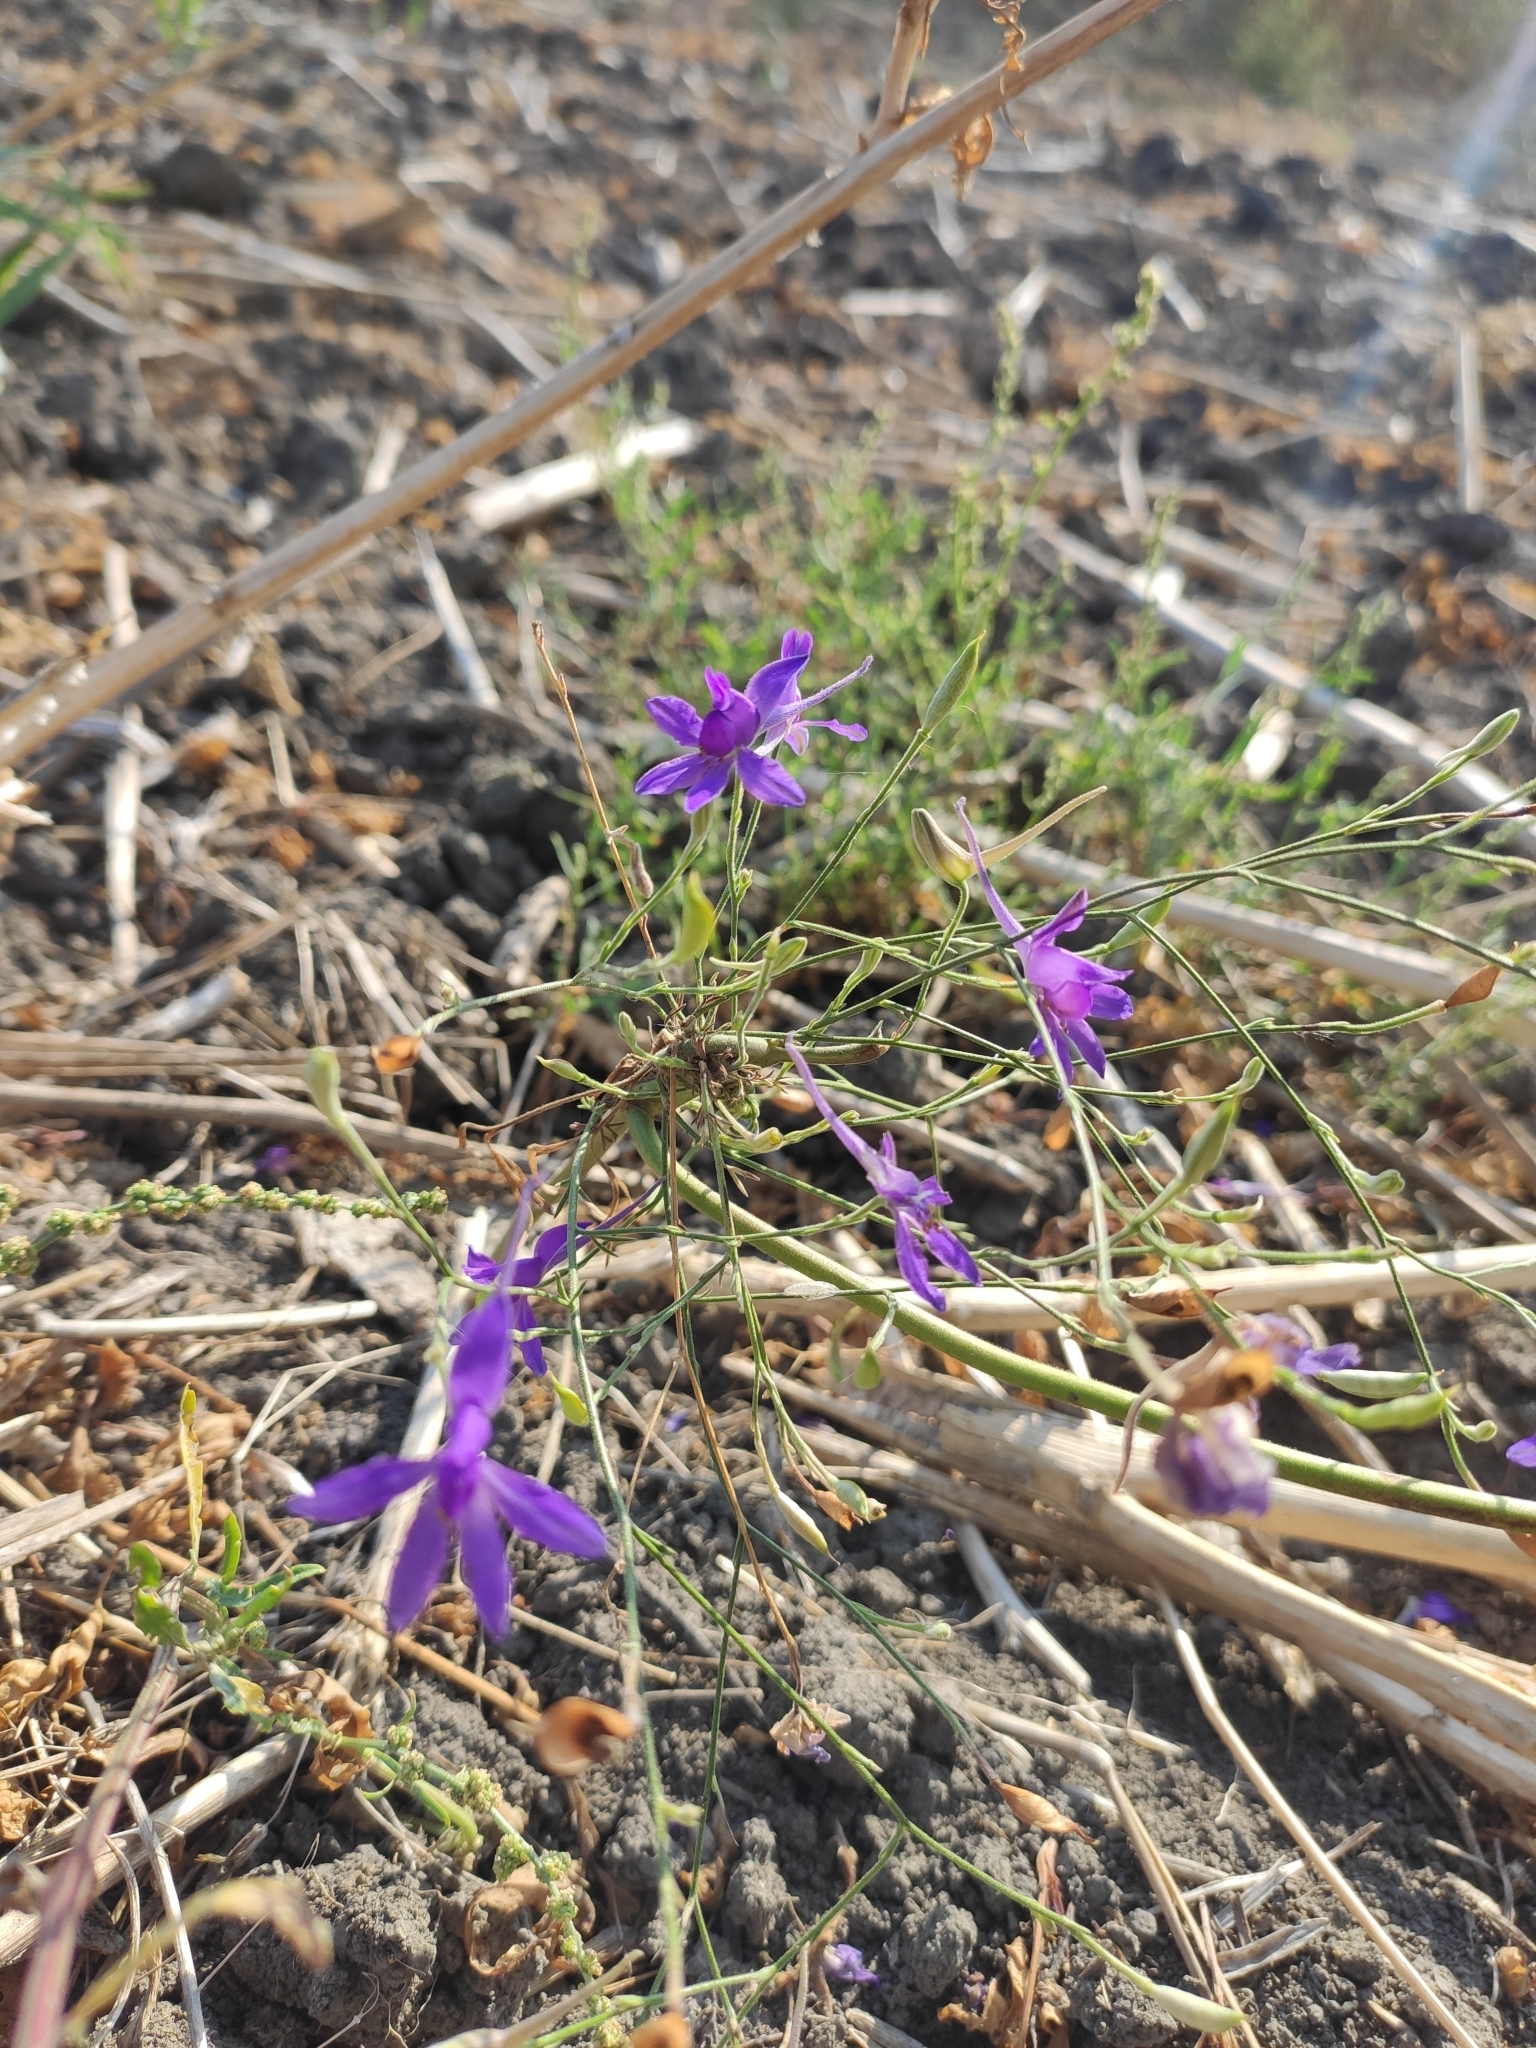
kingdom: Plantae
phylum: Tracheophyta
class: Magnoliopsida
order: Ranunculales
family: Ranunculaceae
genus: Delphinium
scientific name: Delphinium consolida
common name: Branching larkspur
